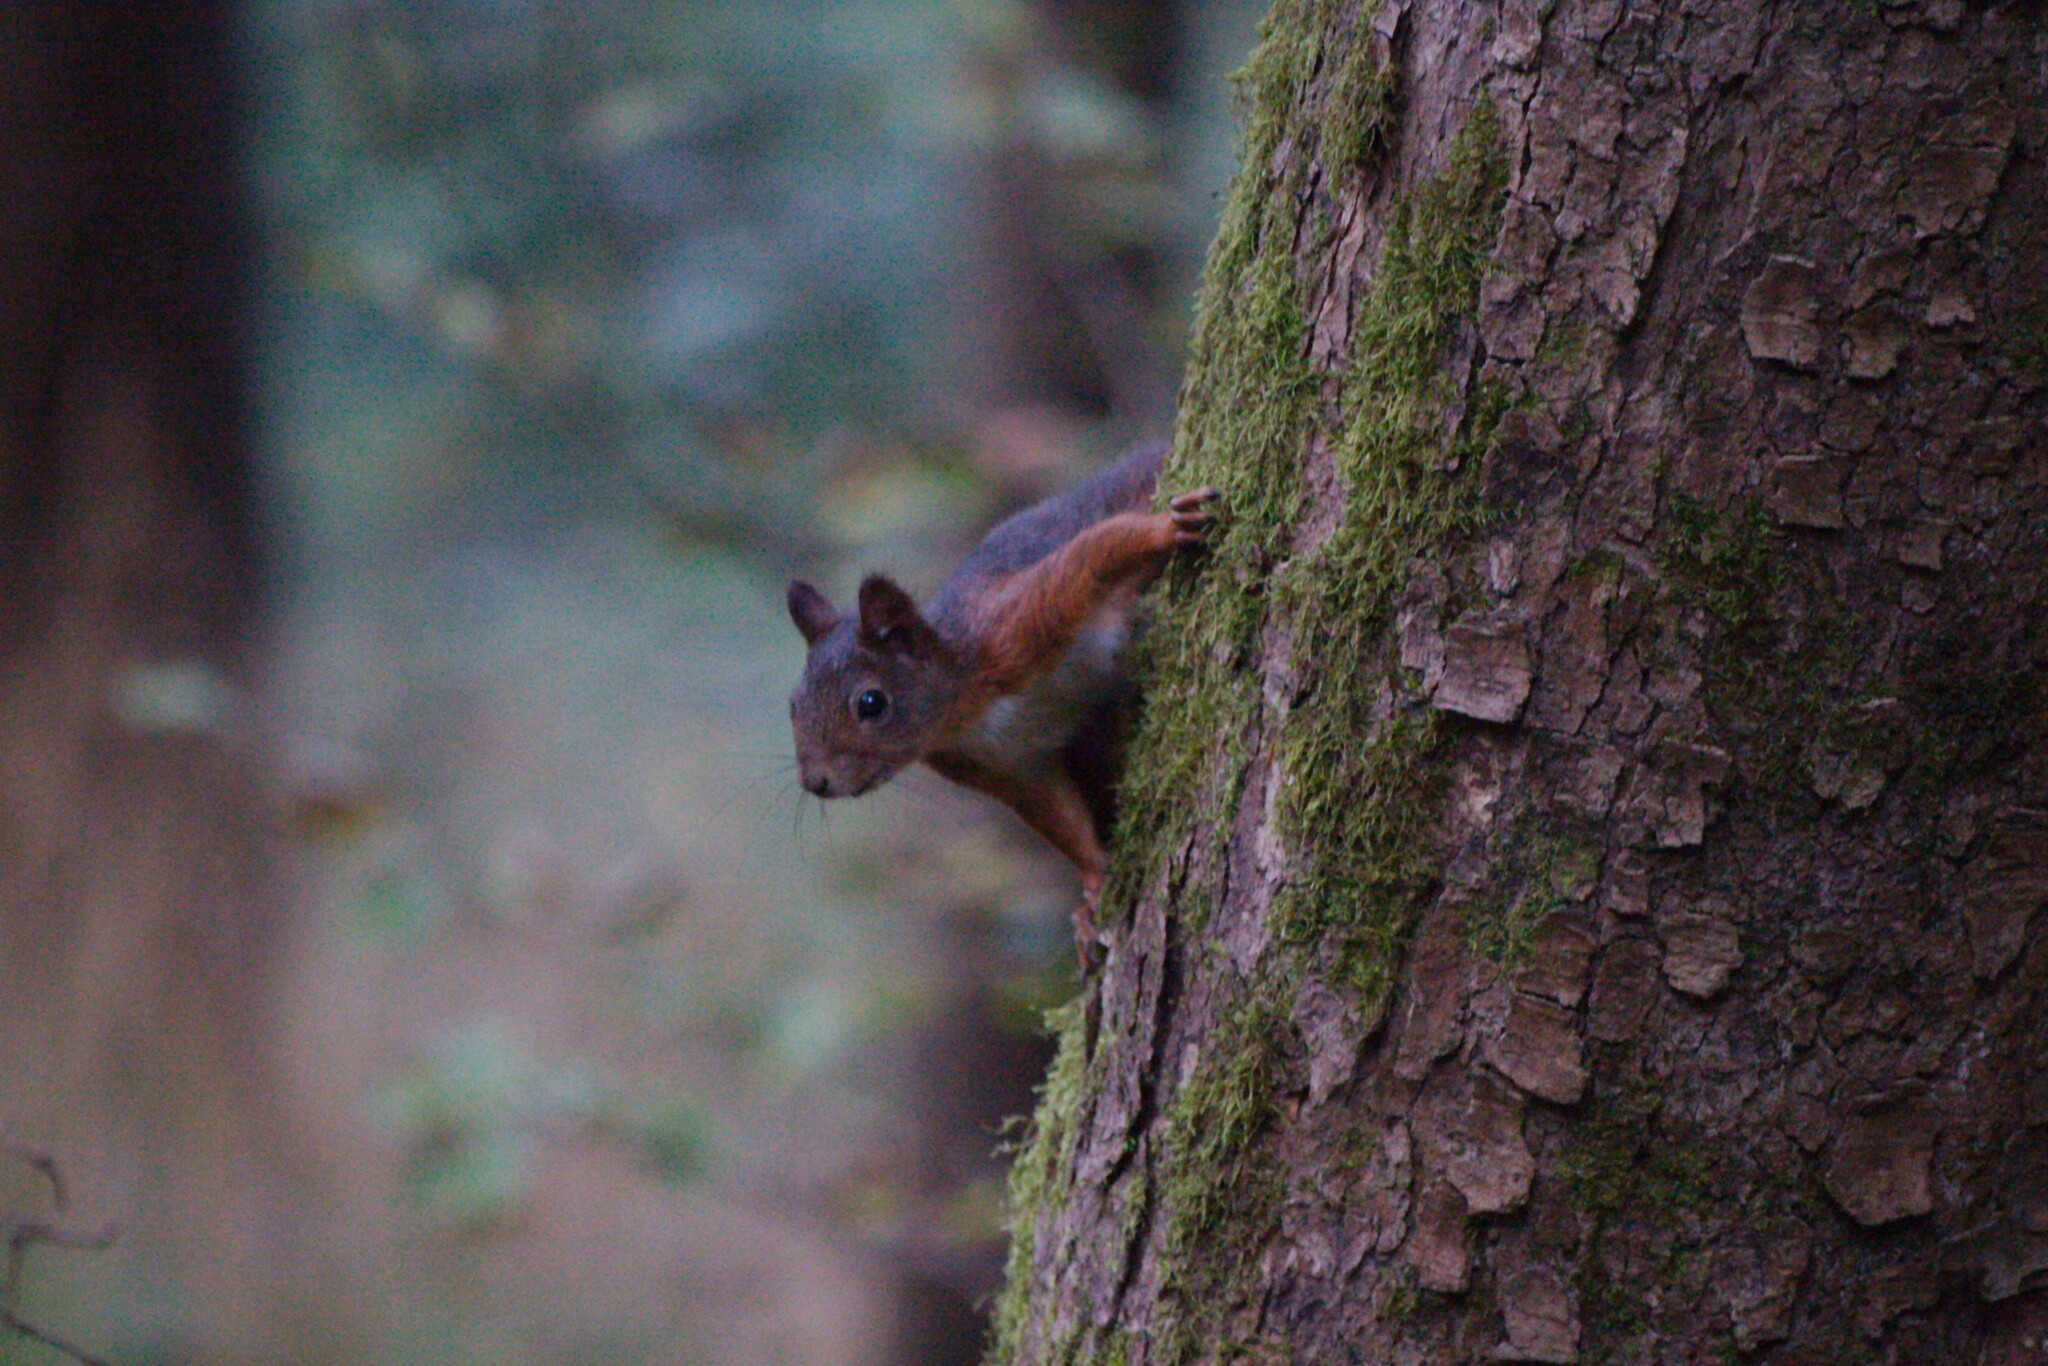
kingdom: Animalia
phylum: Chordata
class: Mammalia
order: Rodentia
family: Sciuridae
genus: Sciurus
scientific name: Sciurus vulgaris
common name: Eurasian red squirrel
